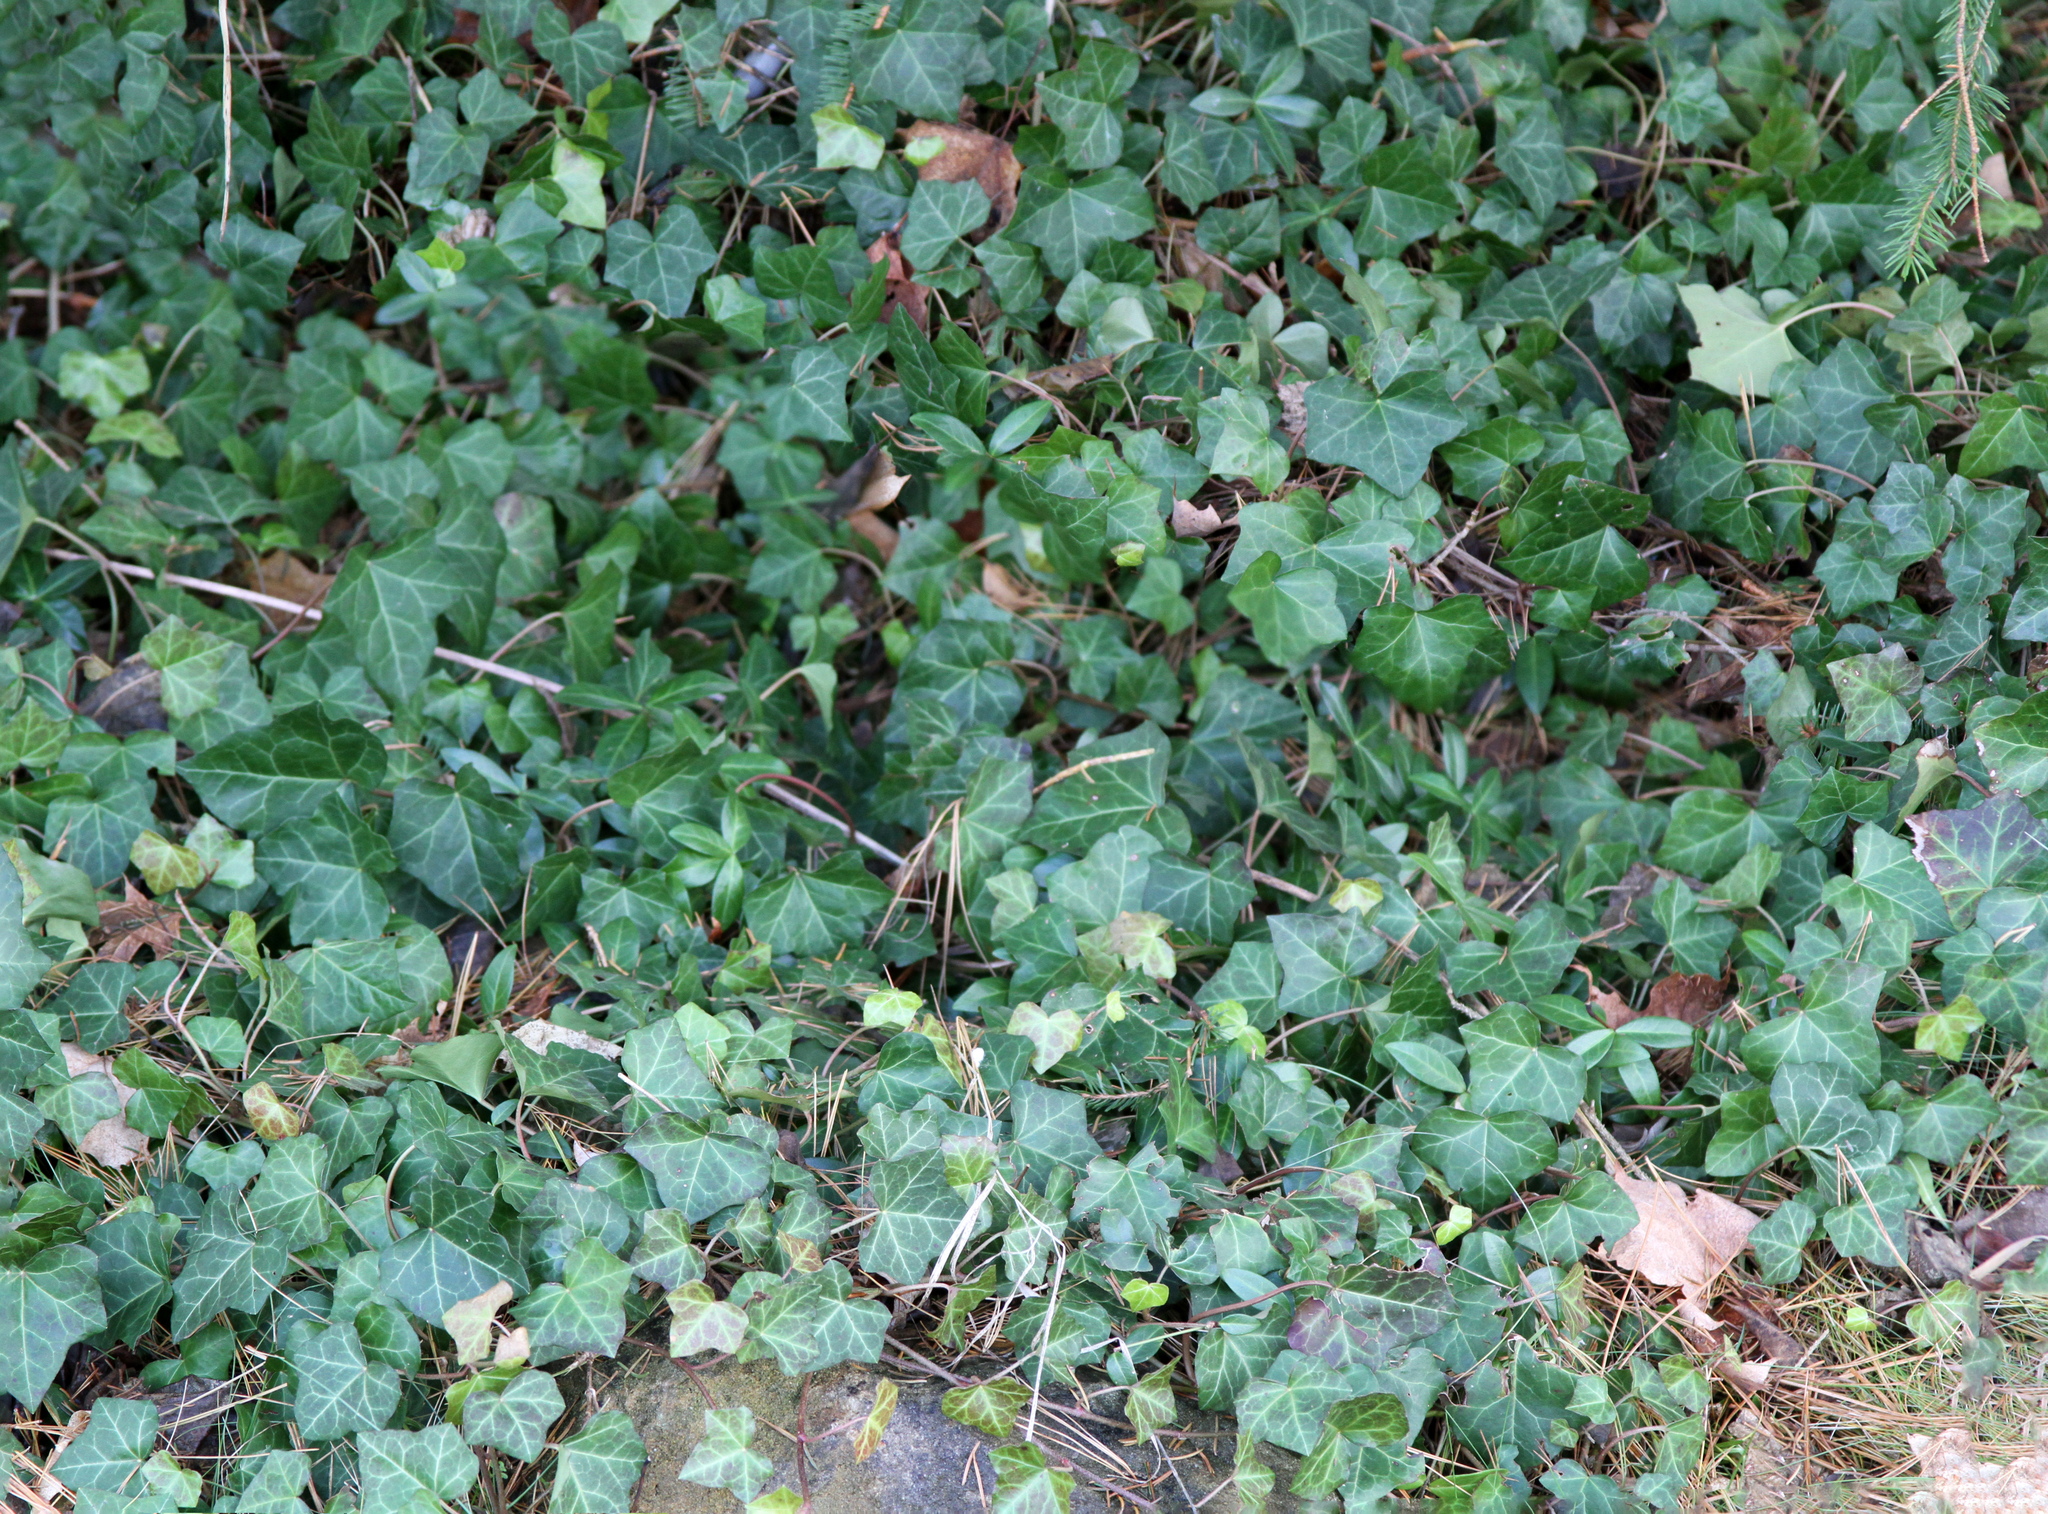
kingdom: Plantae
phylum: Tracheophyta
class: Magnoliopsida
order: Apiales
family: Araliaceae
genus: Hedera
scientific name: Hedera helix
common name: Ivy
